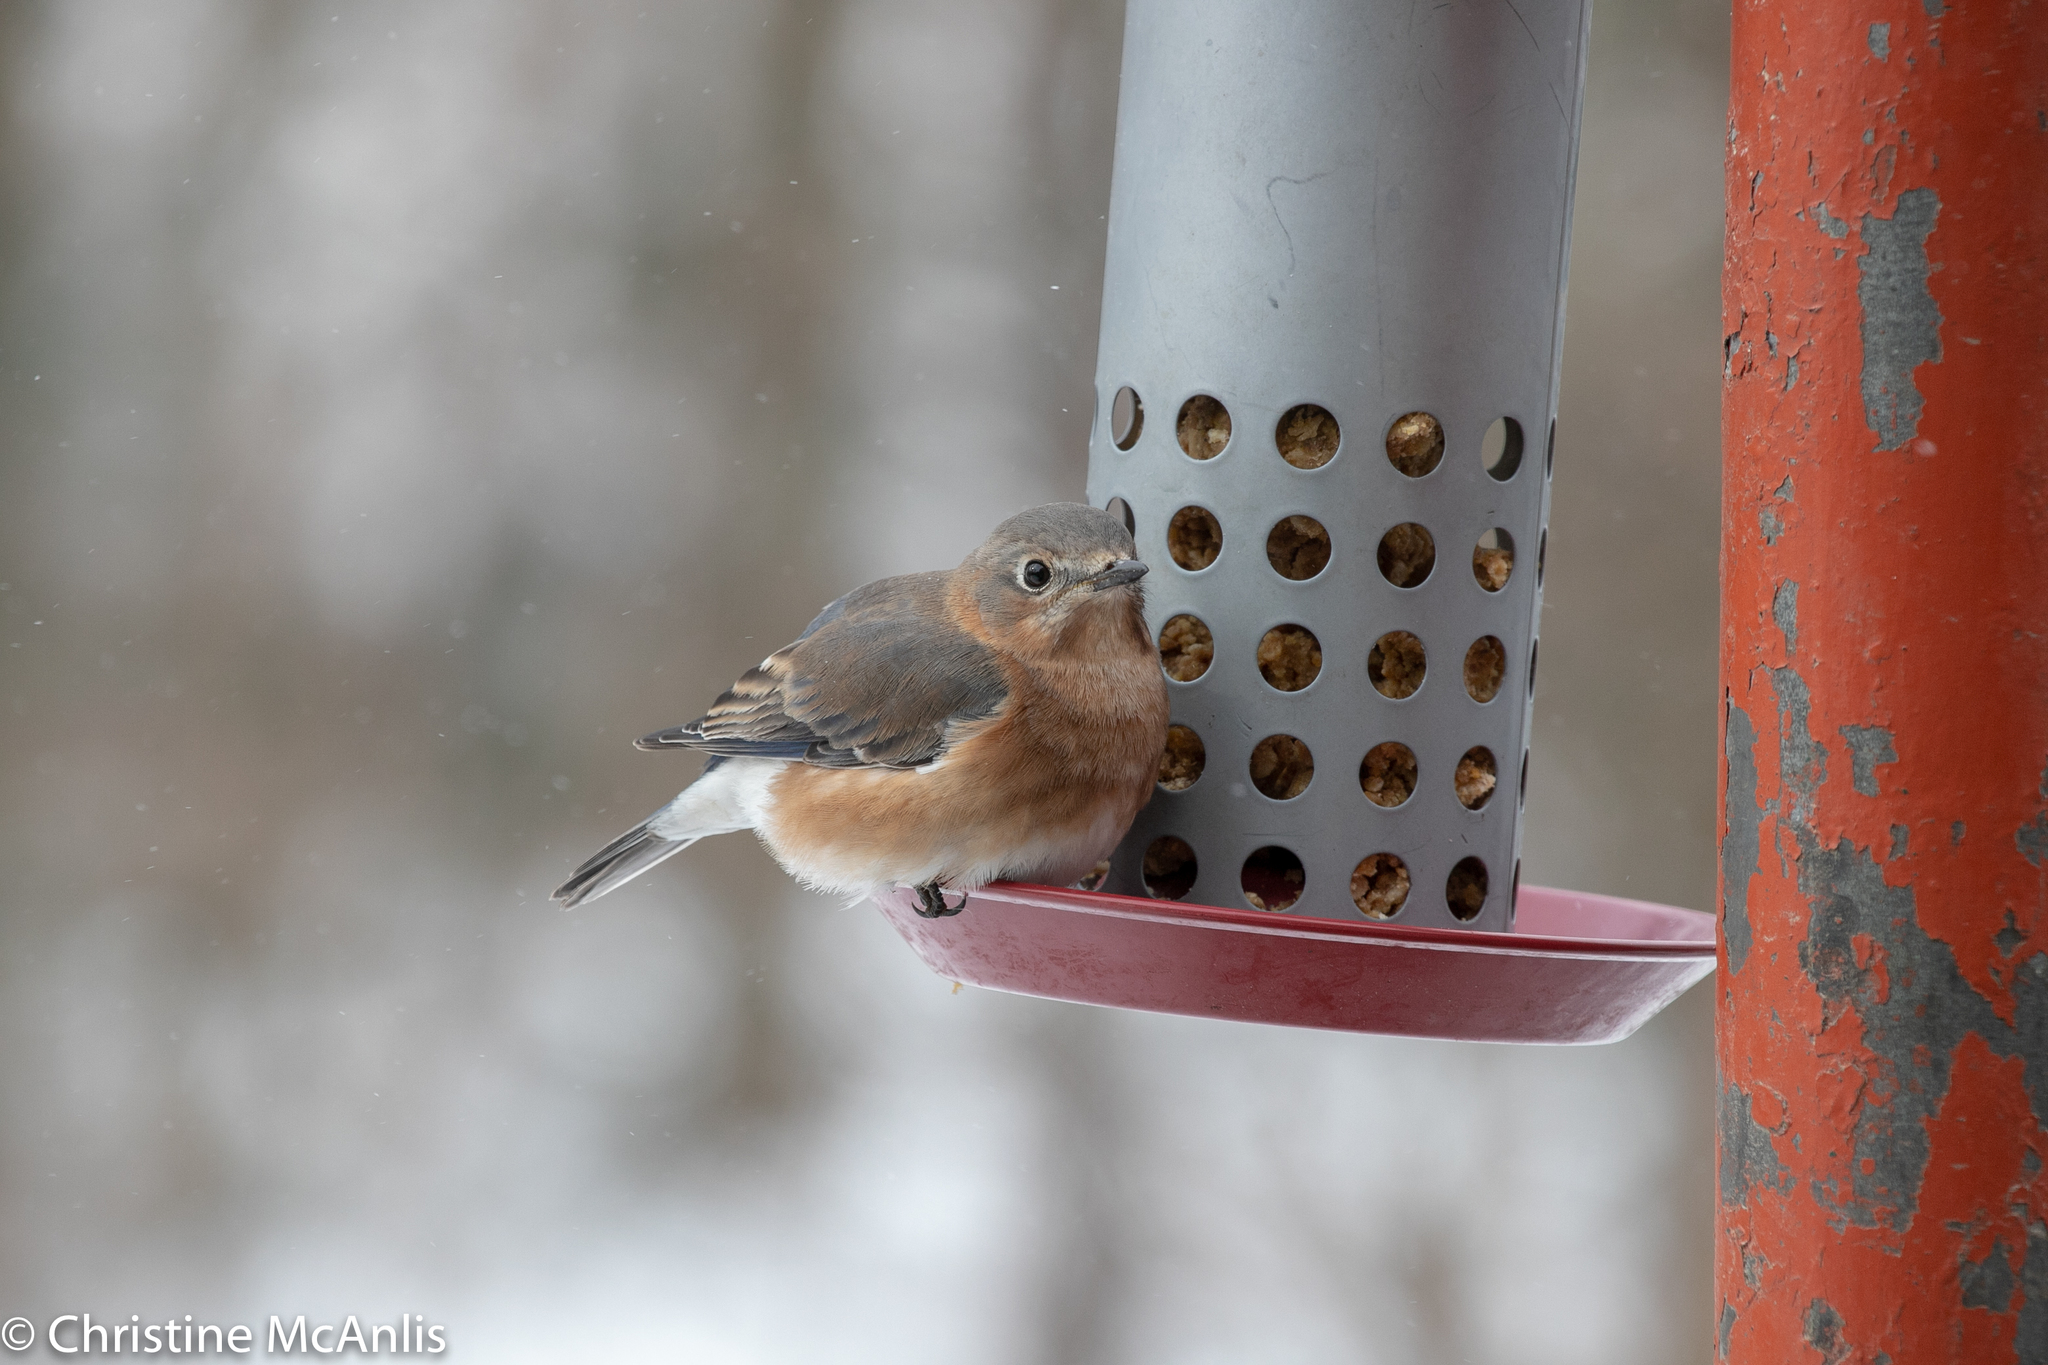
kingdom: Animalia
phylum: Chordata
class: Aves
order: Passeriformes
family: Turdidae
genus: Sialia
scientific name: Sialia sialis
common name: Eastern bluebird
